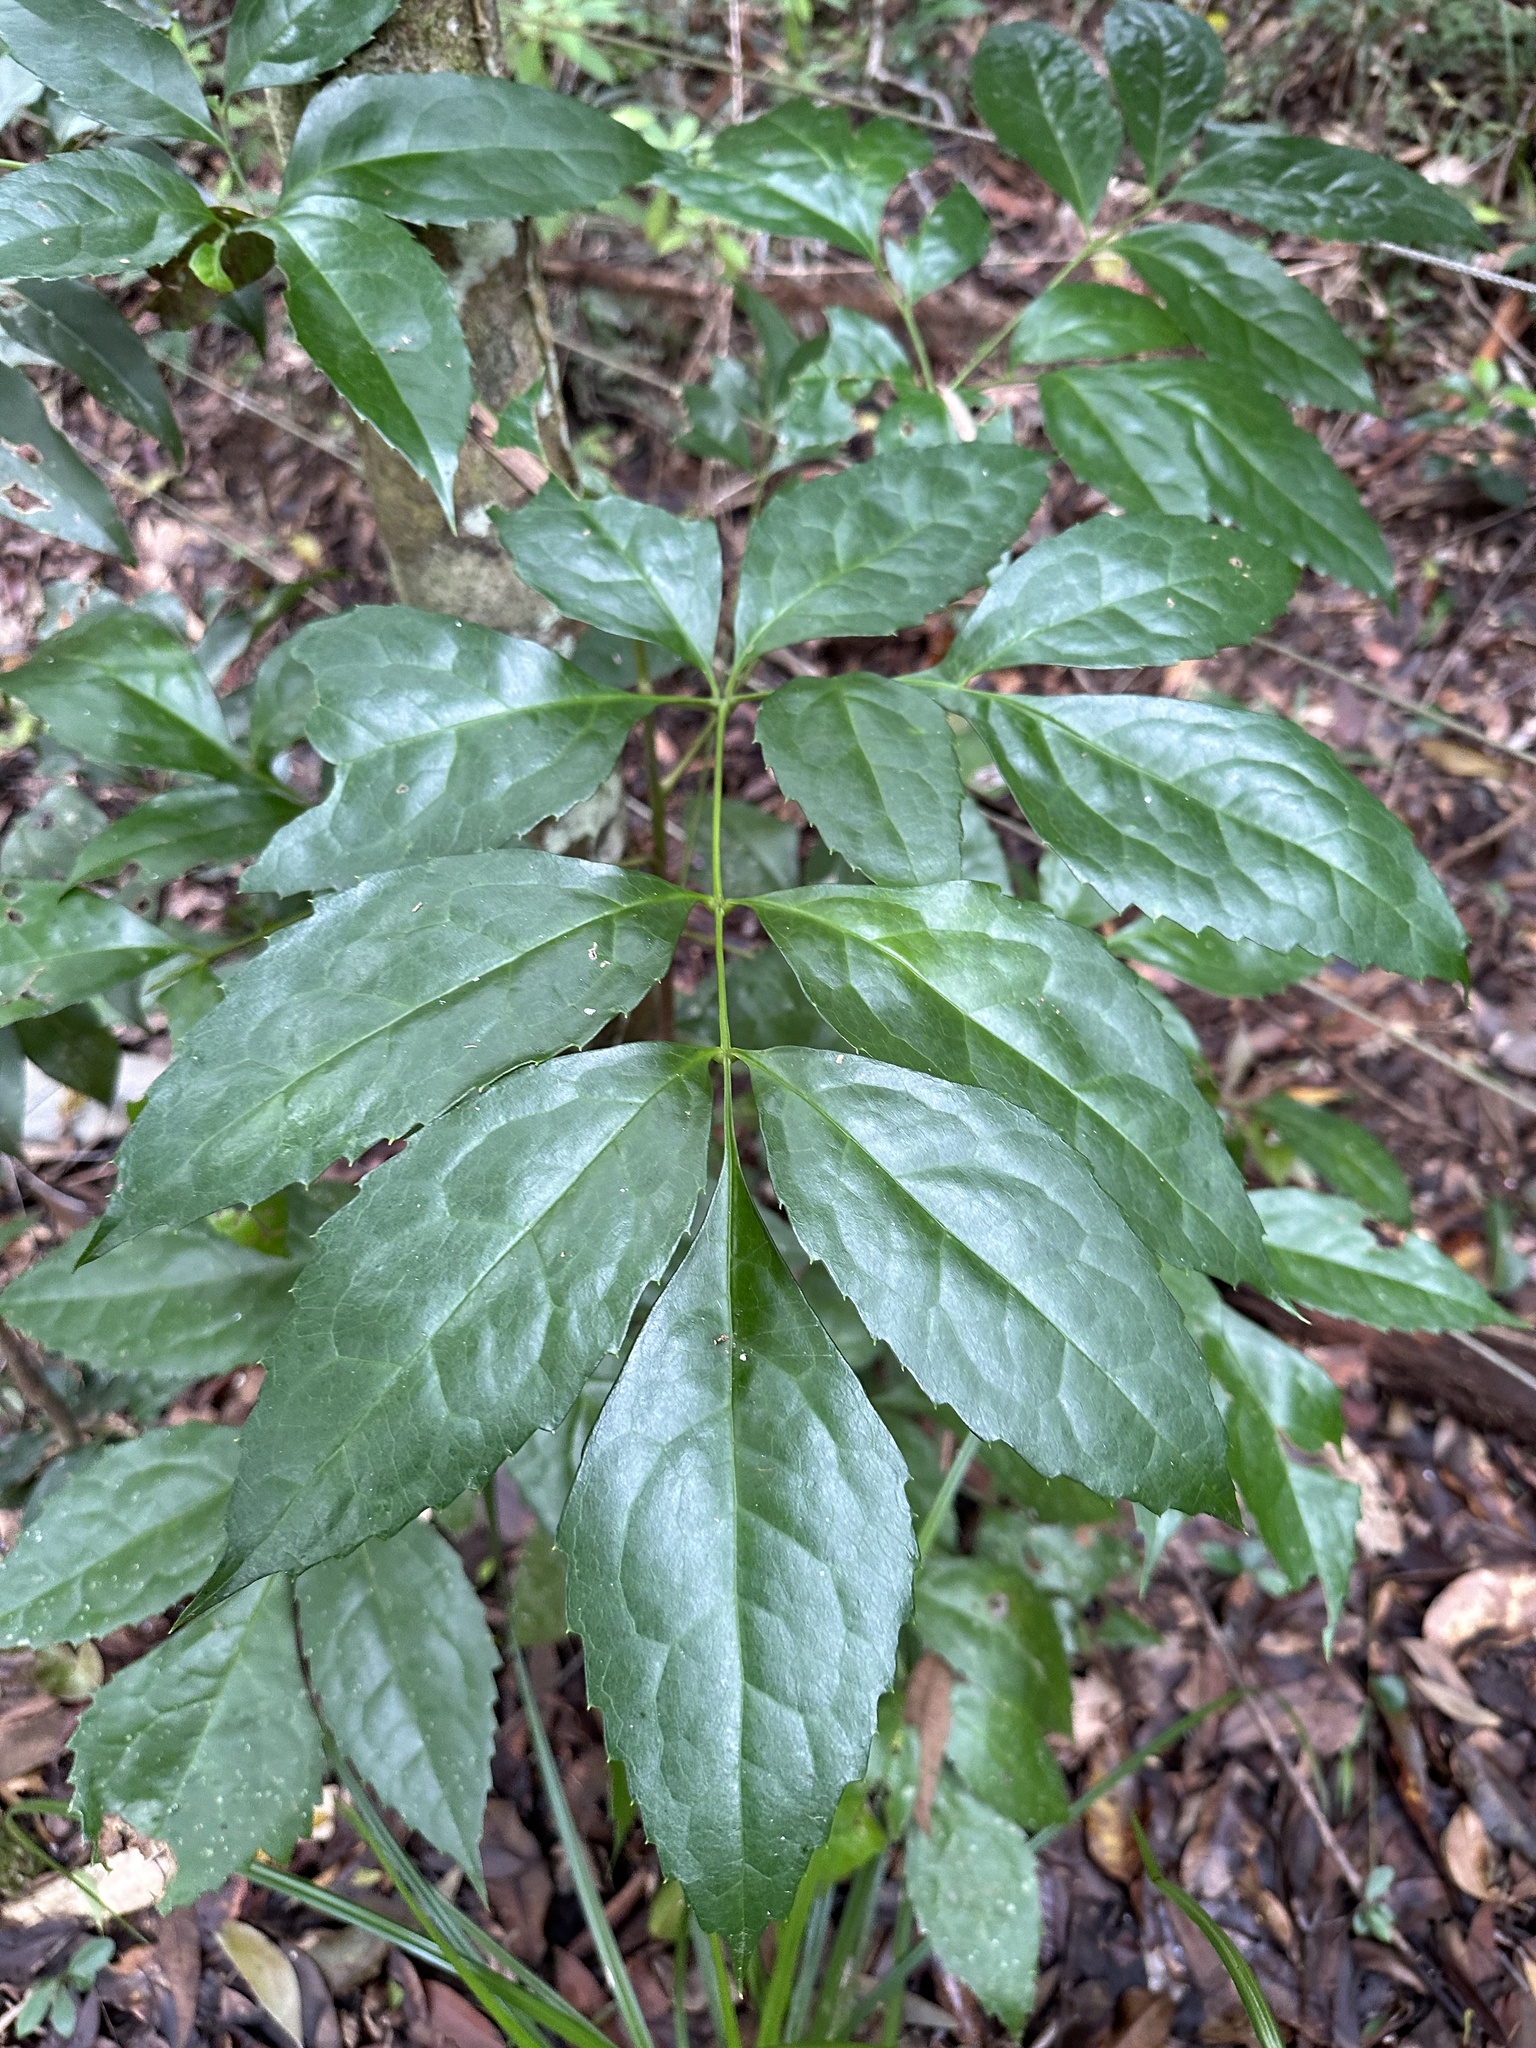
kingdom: Plantae
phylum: Tracheophyta
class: Magnoliopsida
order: Proteales
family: Proteaceae
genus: Carnarvonia
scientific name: Carnarvonia araliifolia
